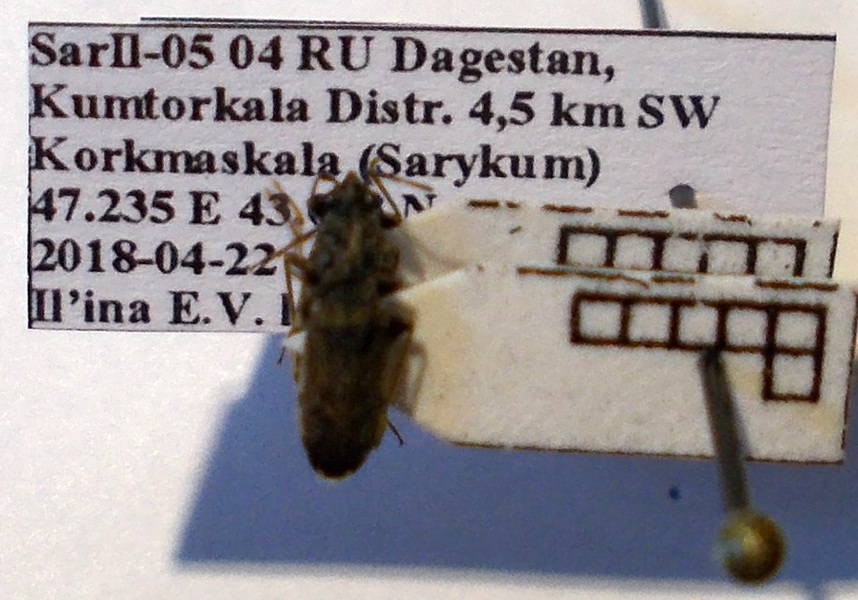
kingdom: Animalia
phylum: Arthropoda
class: Insecta
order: Hemiptera
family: Rhyparochromidae
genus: Peritrechus
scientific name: Peritrechus gracilicornis
